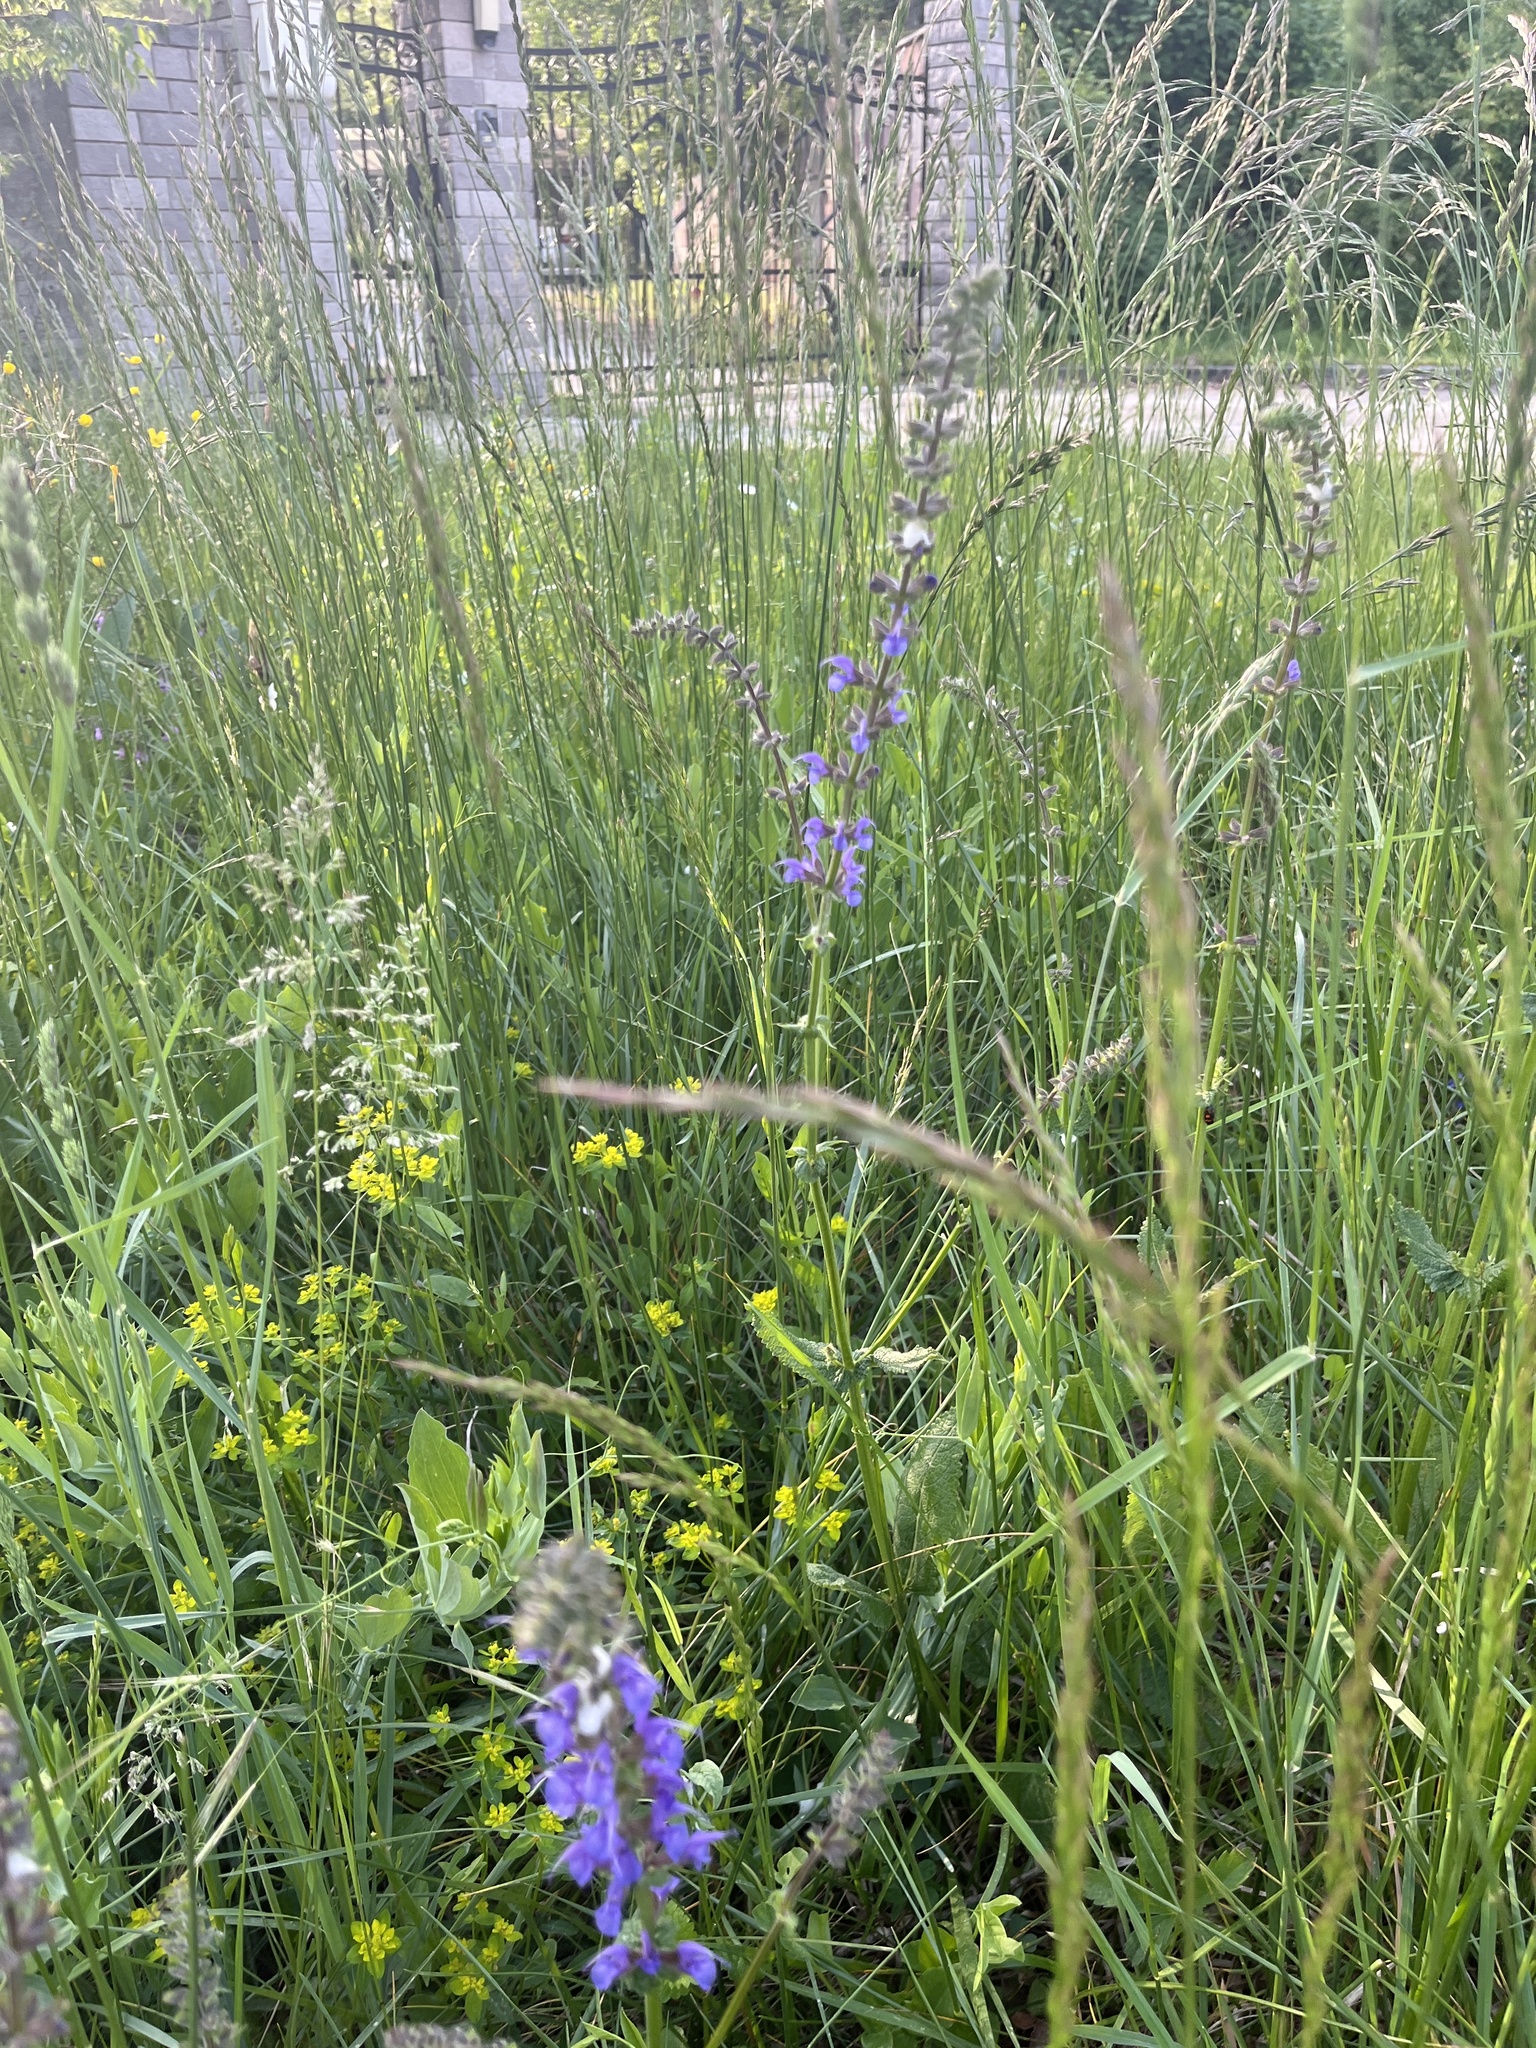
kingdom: Plantae
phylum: Tracheophyta
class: Magnoliopsida
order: Lamiales
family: Lamiaceae
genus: Salvia
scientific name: Salvia pratensis
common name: Meadow sage
